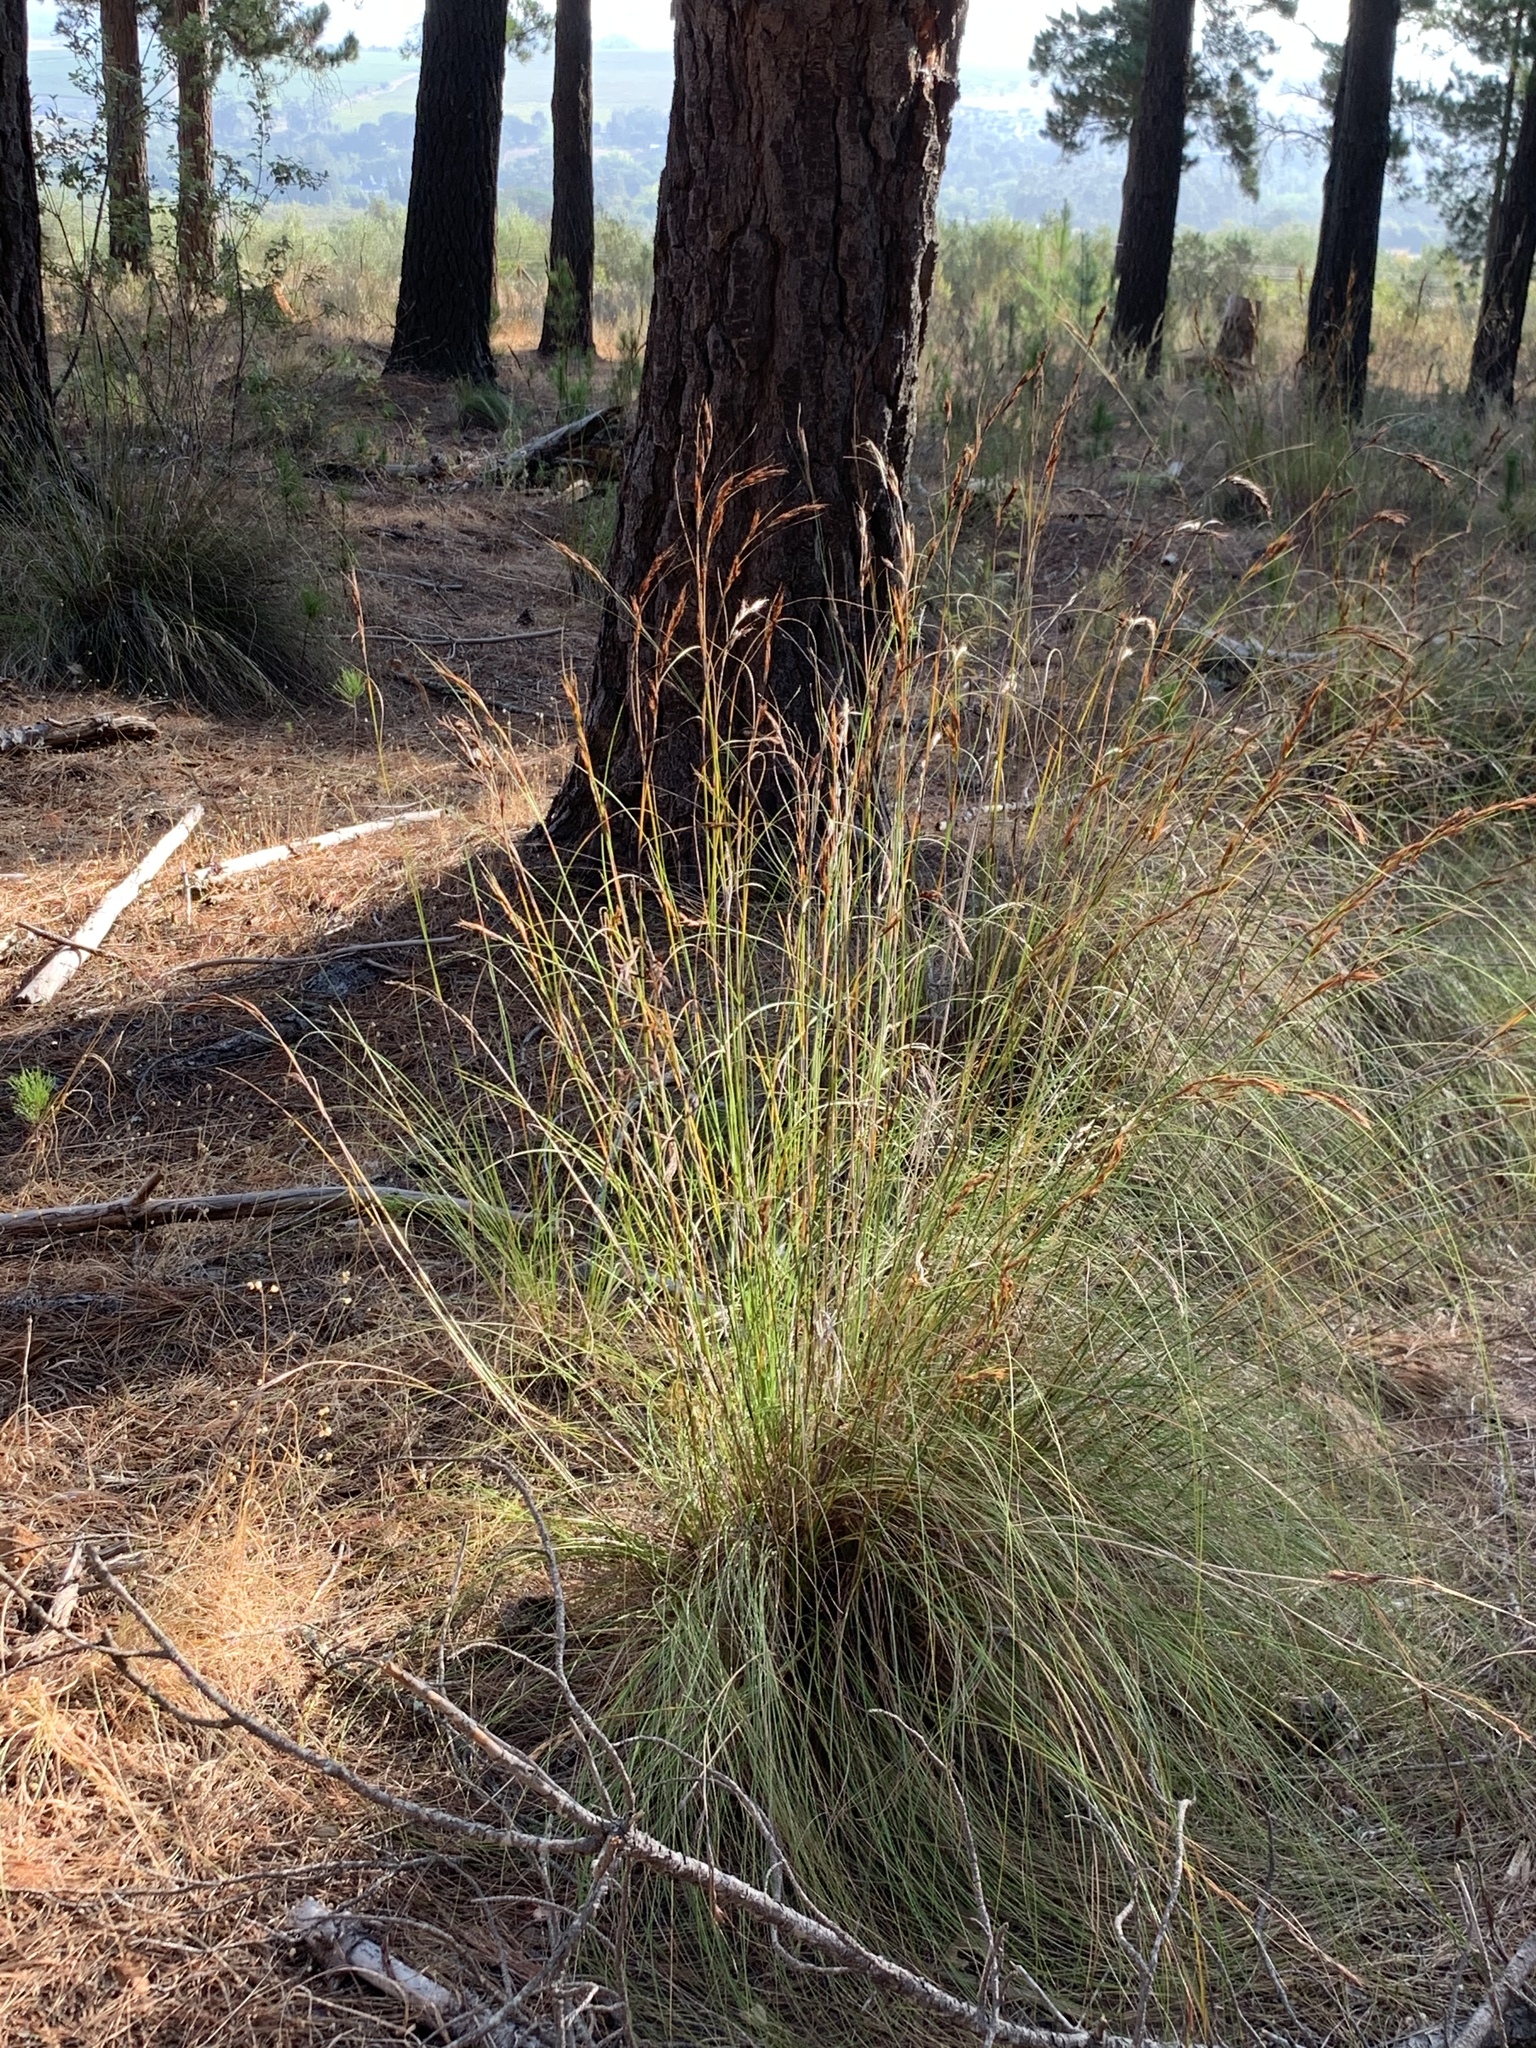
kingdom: Plantae
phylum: Tracheophyta
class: Liliopsida
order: Poales
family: Cyperaceae
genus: Tetraria
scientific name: Tetraria ustulata
